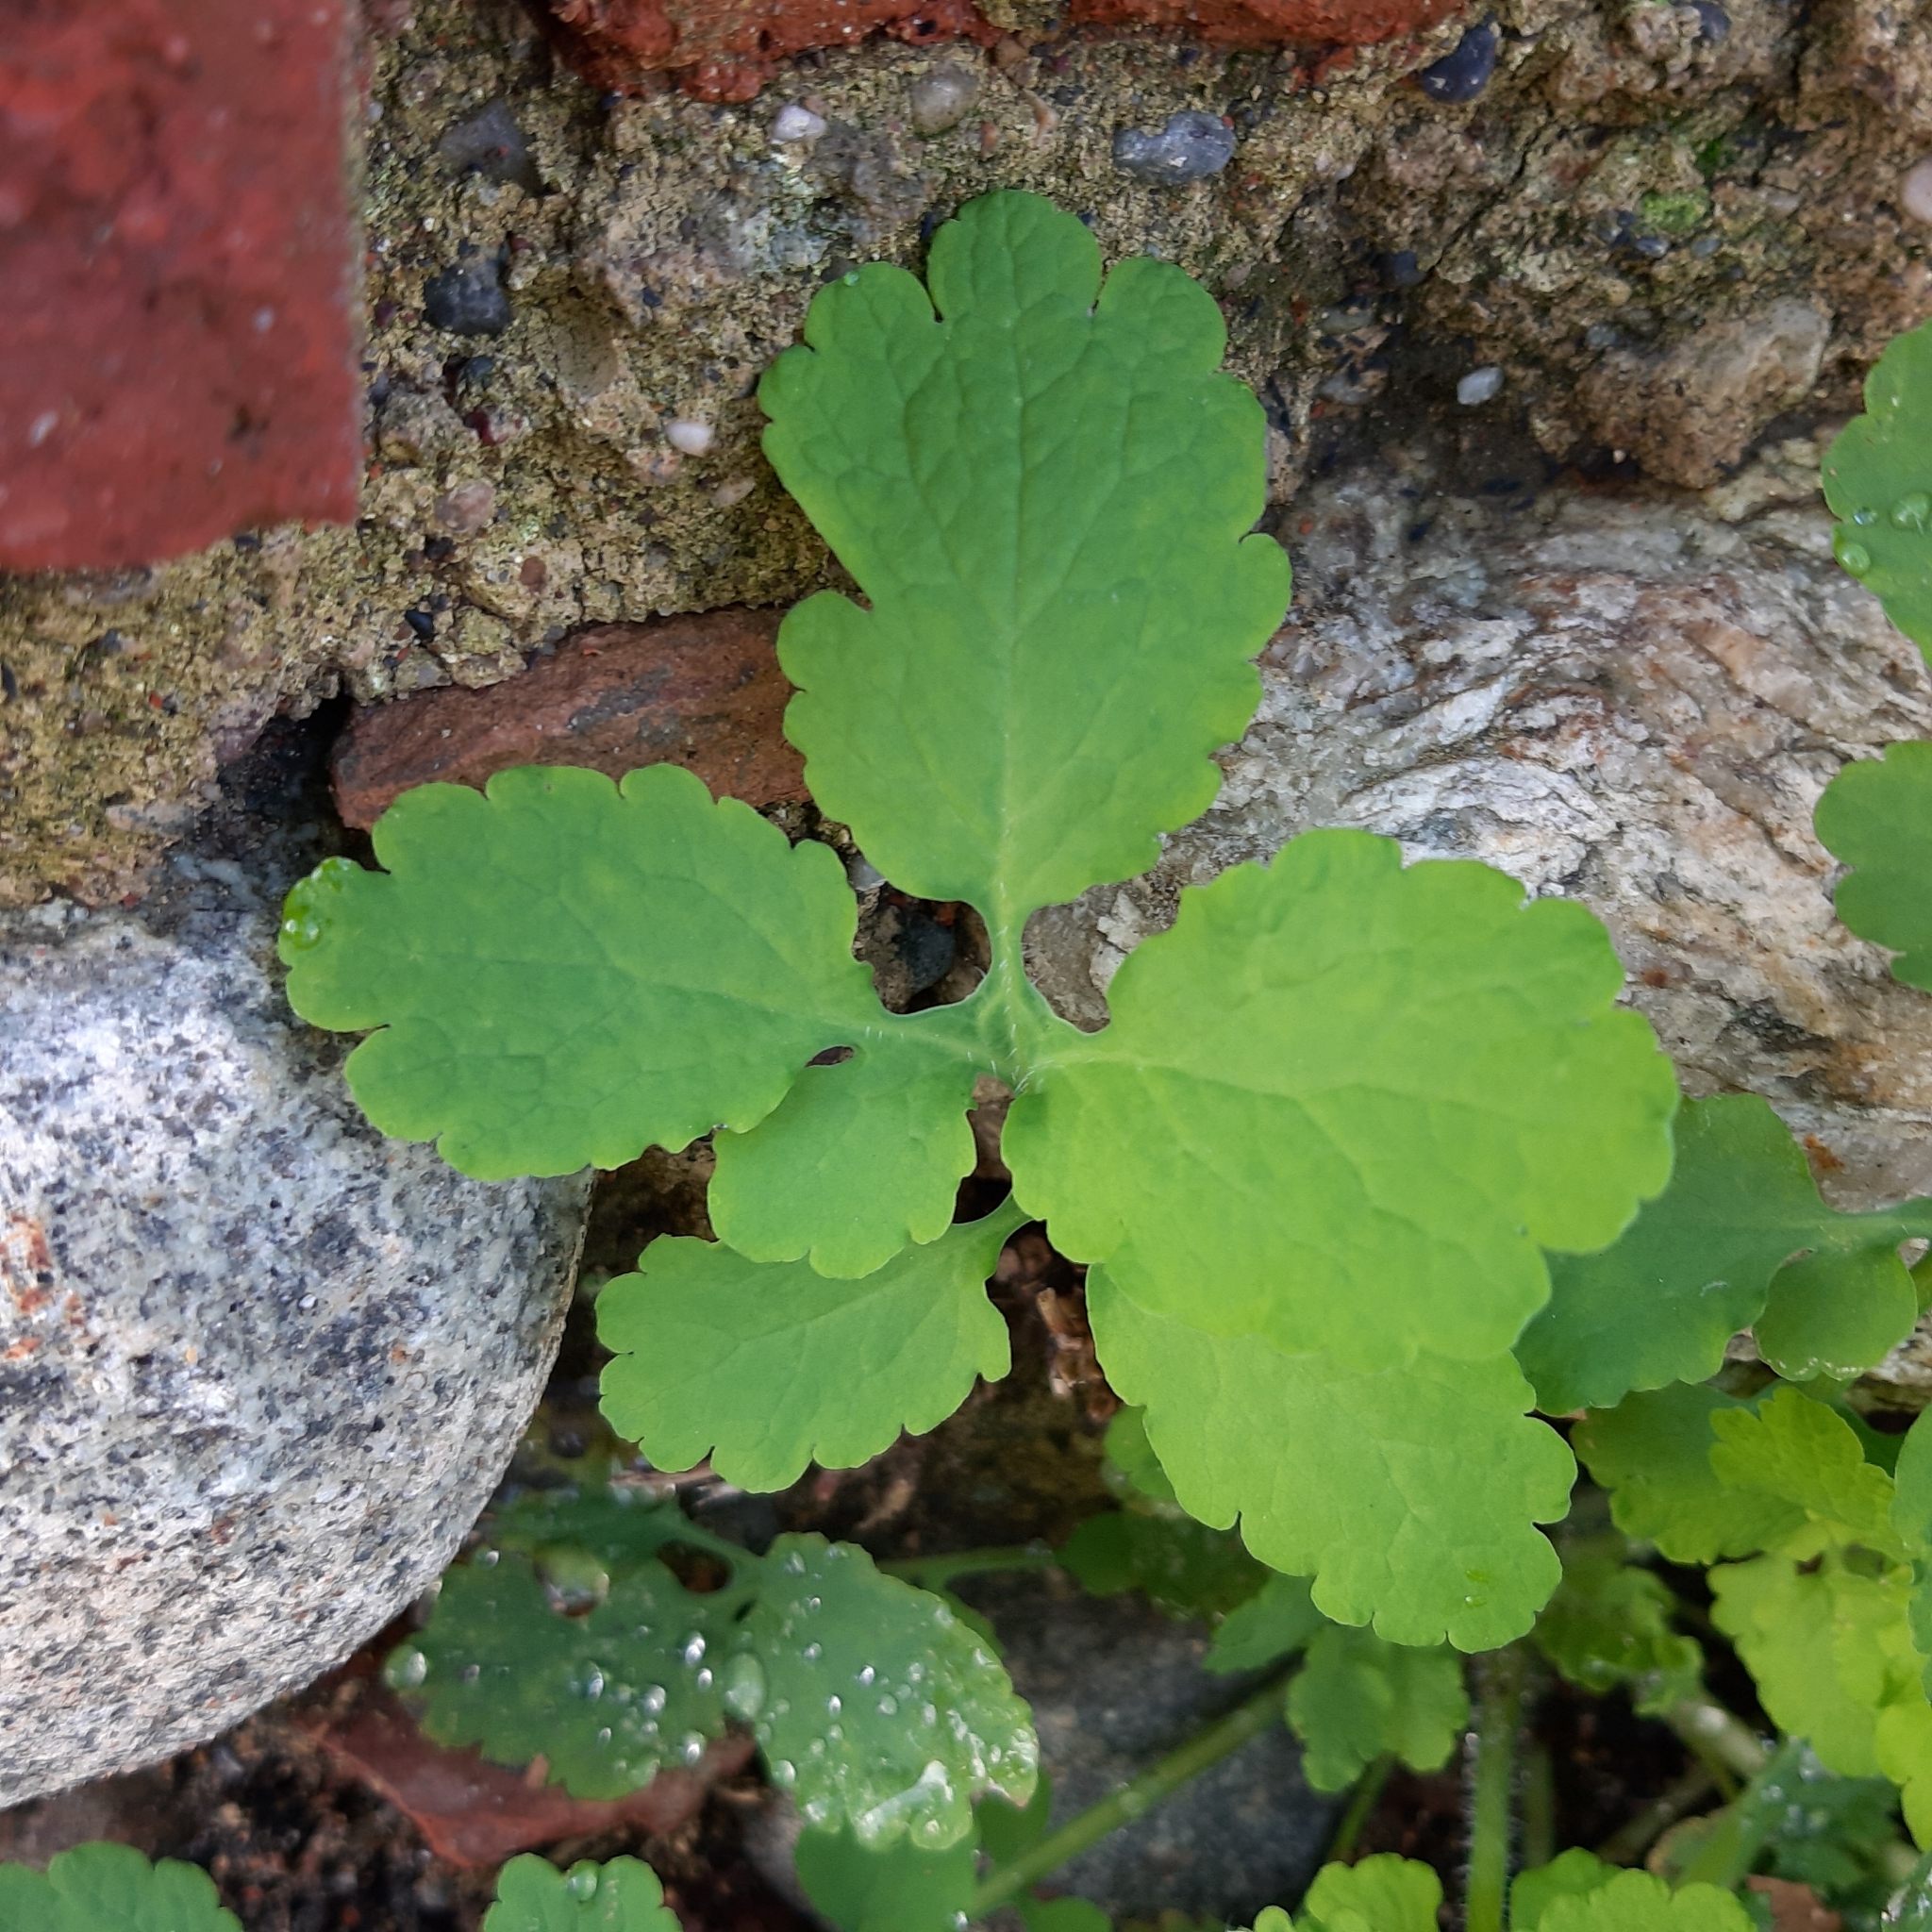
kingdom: Plantae
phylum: Tracheophyta
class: Magnoliopsida
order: Ranunculales
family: Papaveraceae
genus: Chelidonium
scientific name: Chelidonium majus
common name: Greater celandine
